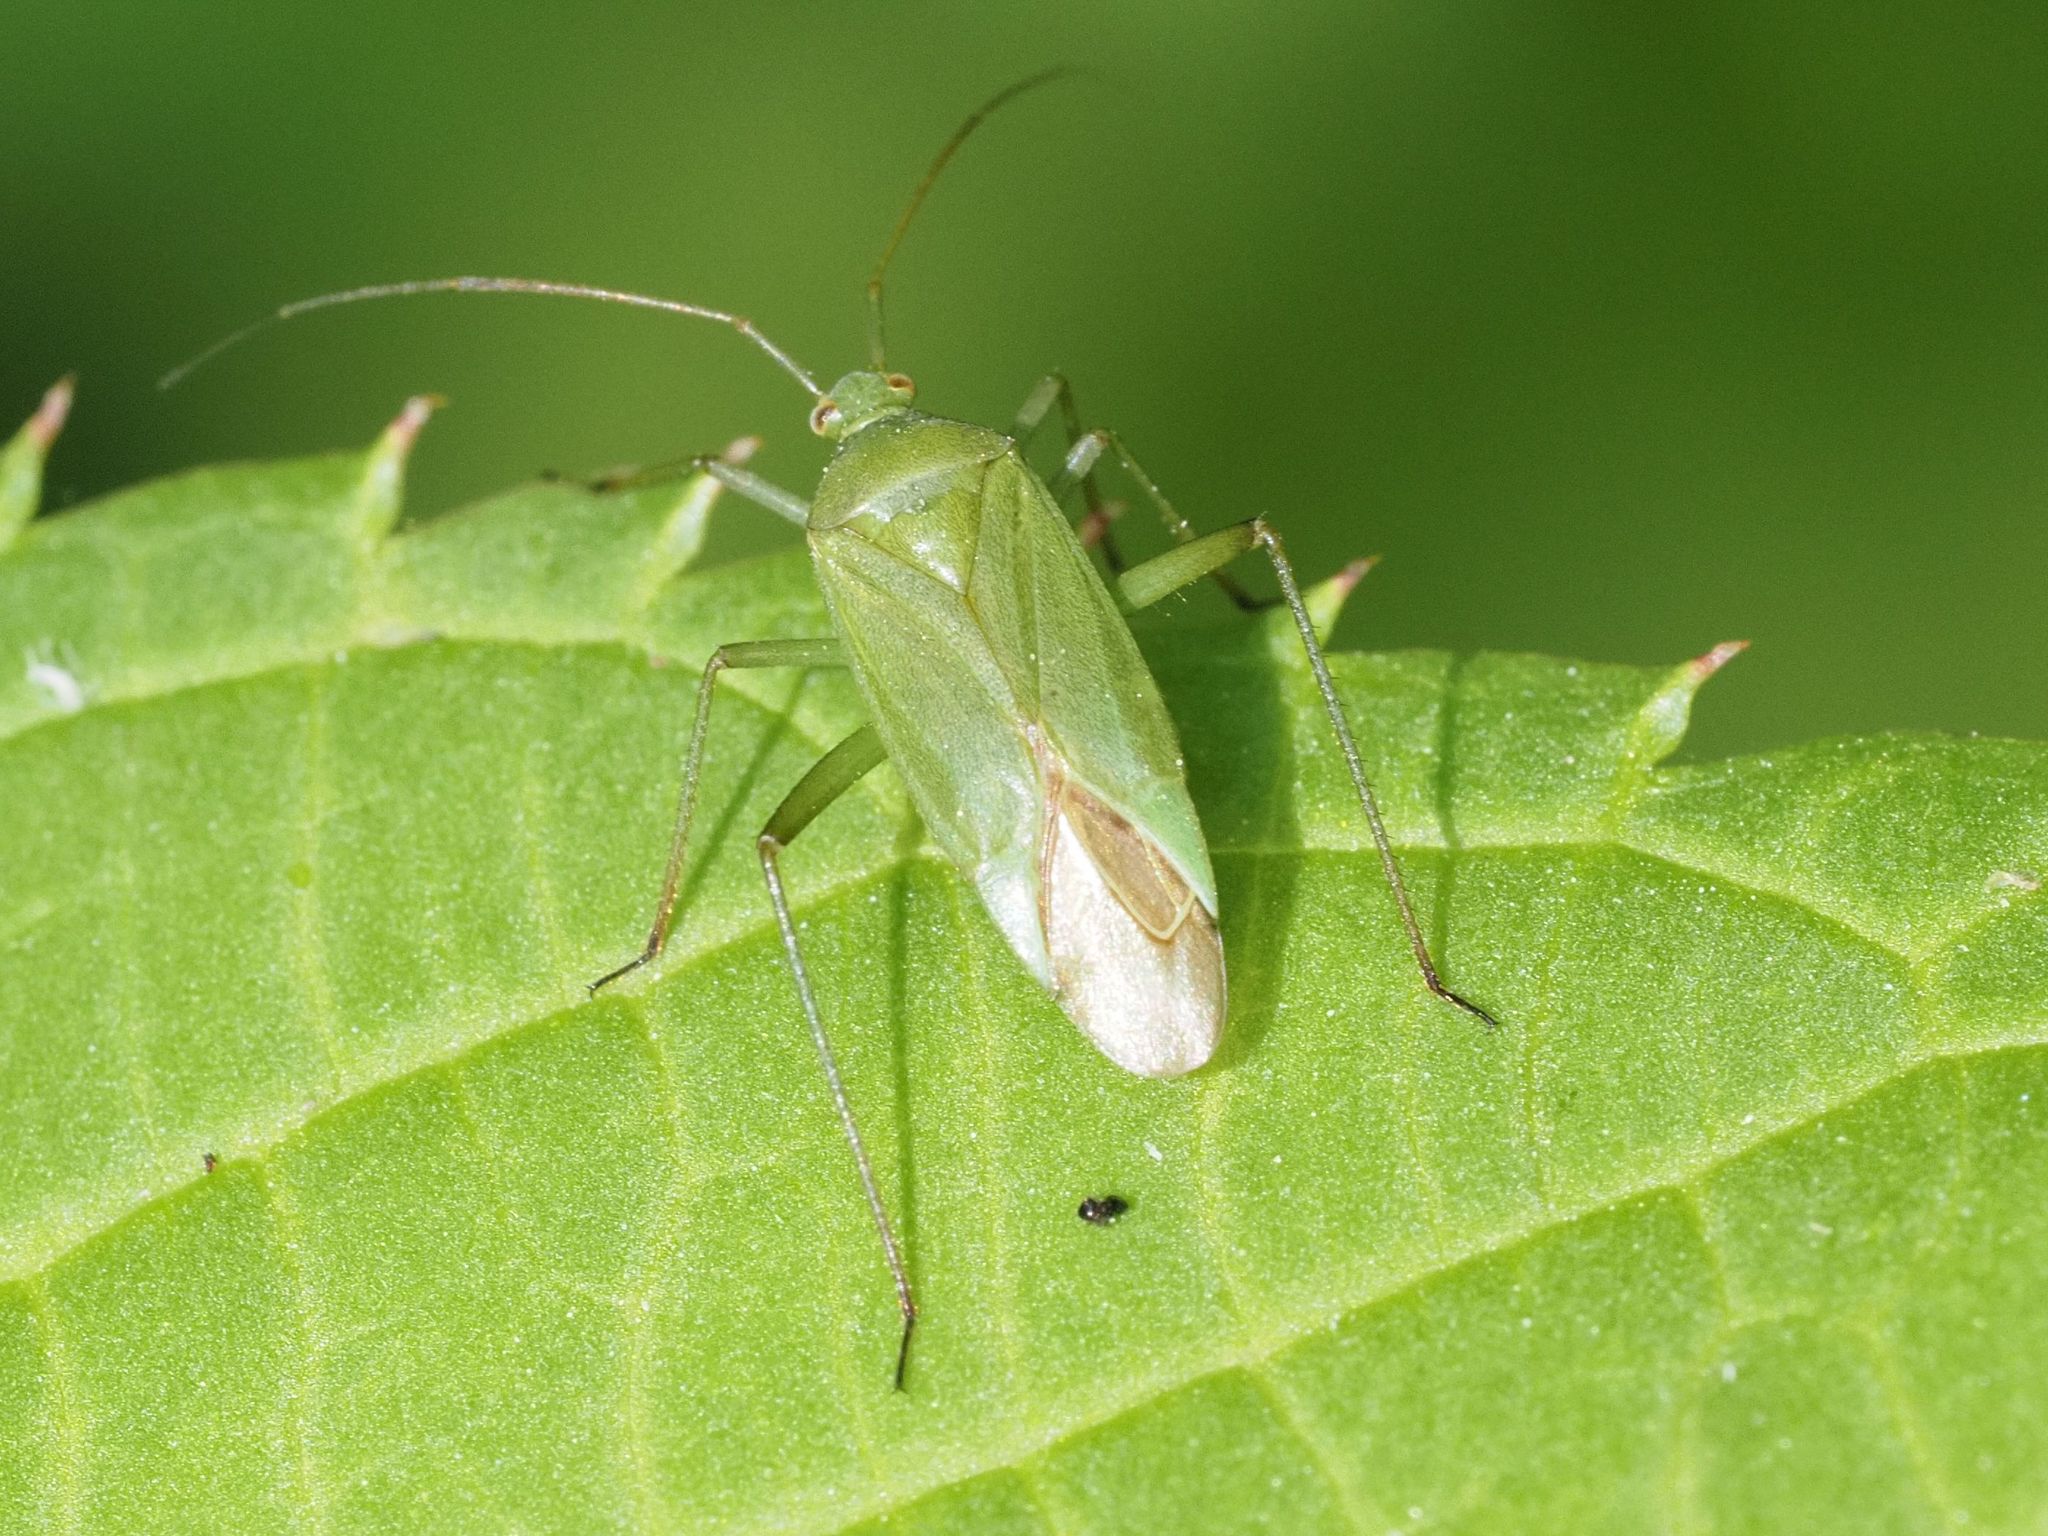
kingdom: Animalia
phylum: Arthropoda
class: Insecta
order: Hemiptera
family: Miridae
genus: Calocoris
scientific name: Calocoris affinis
